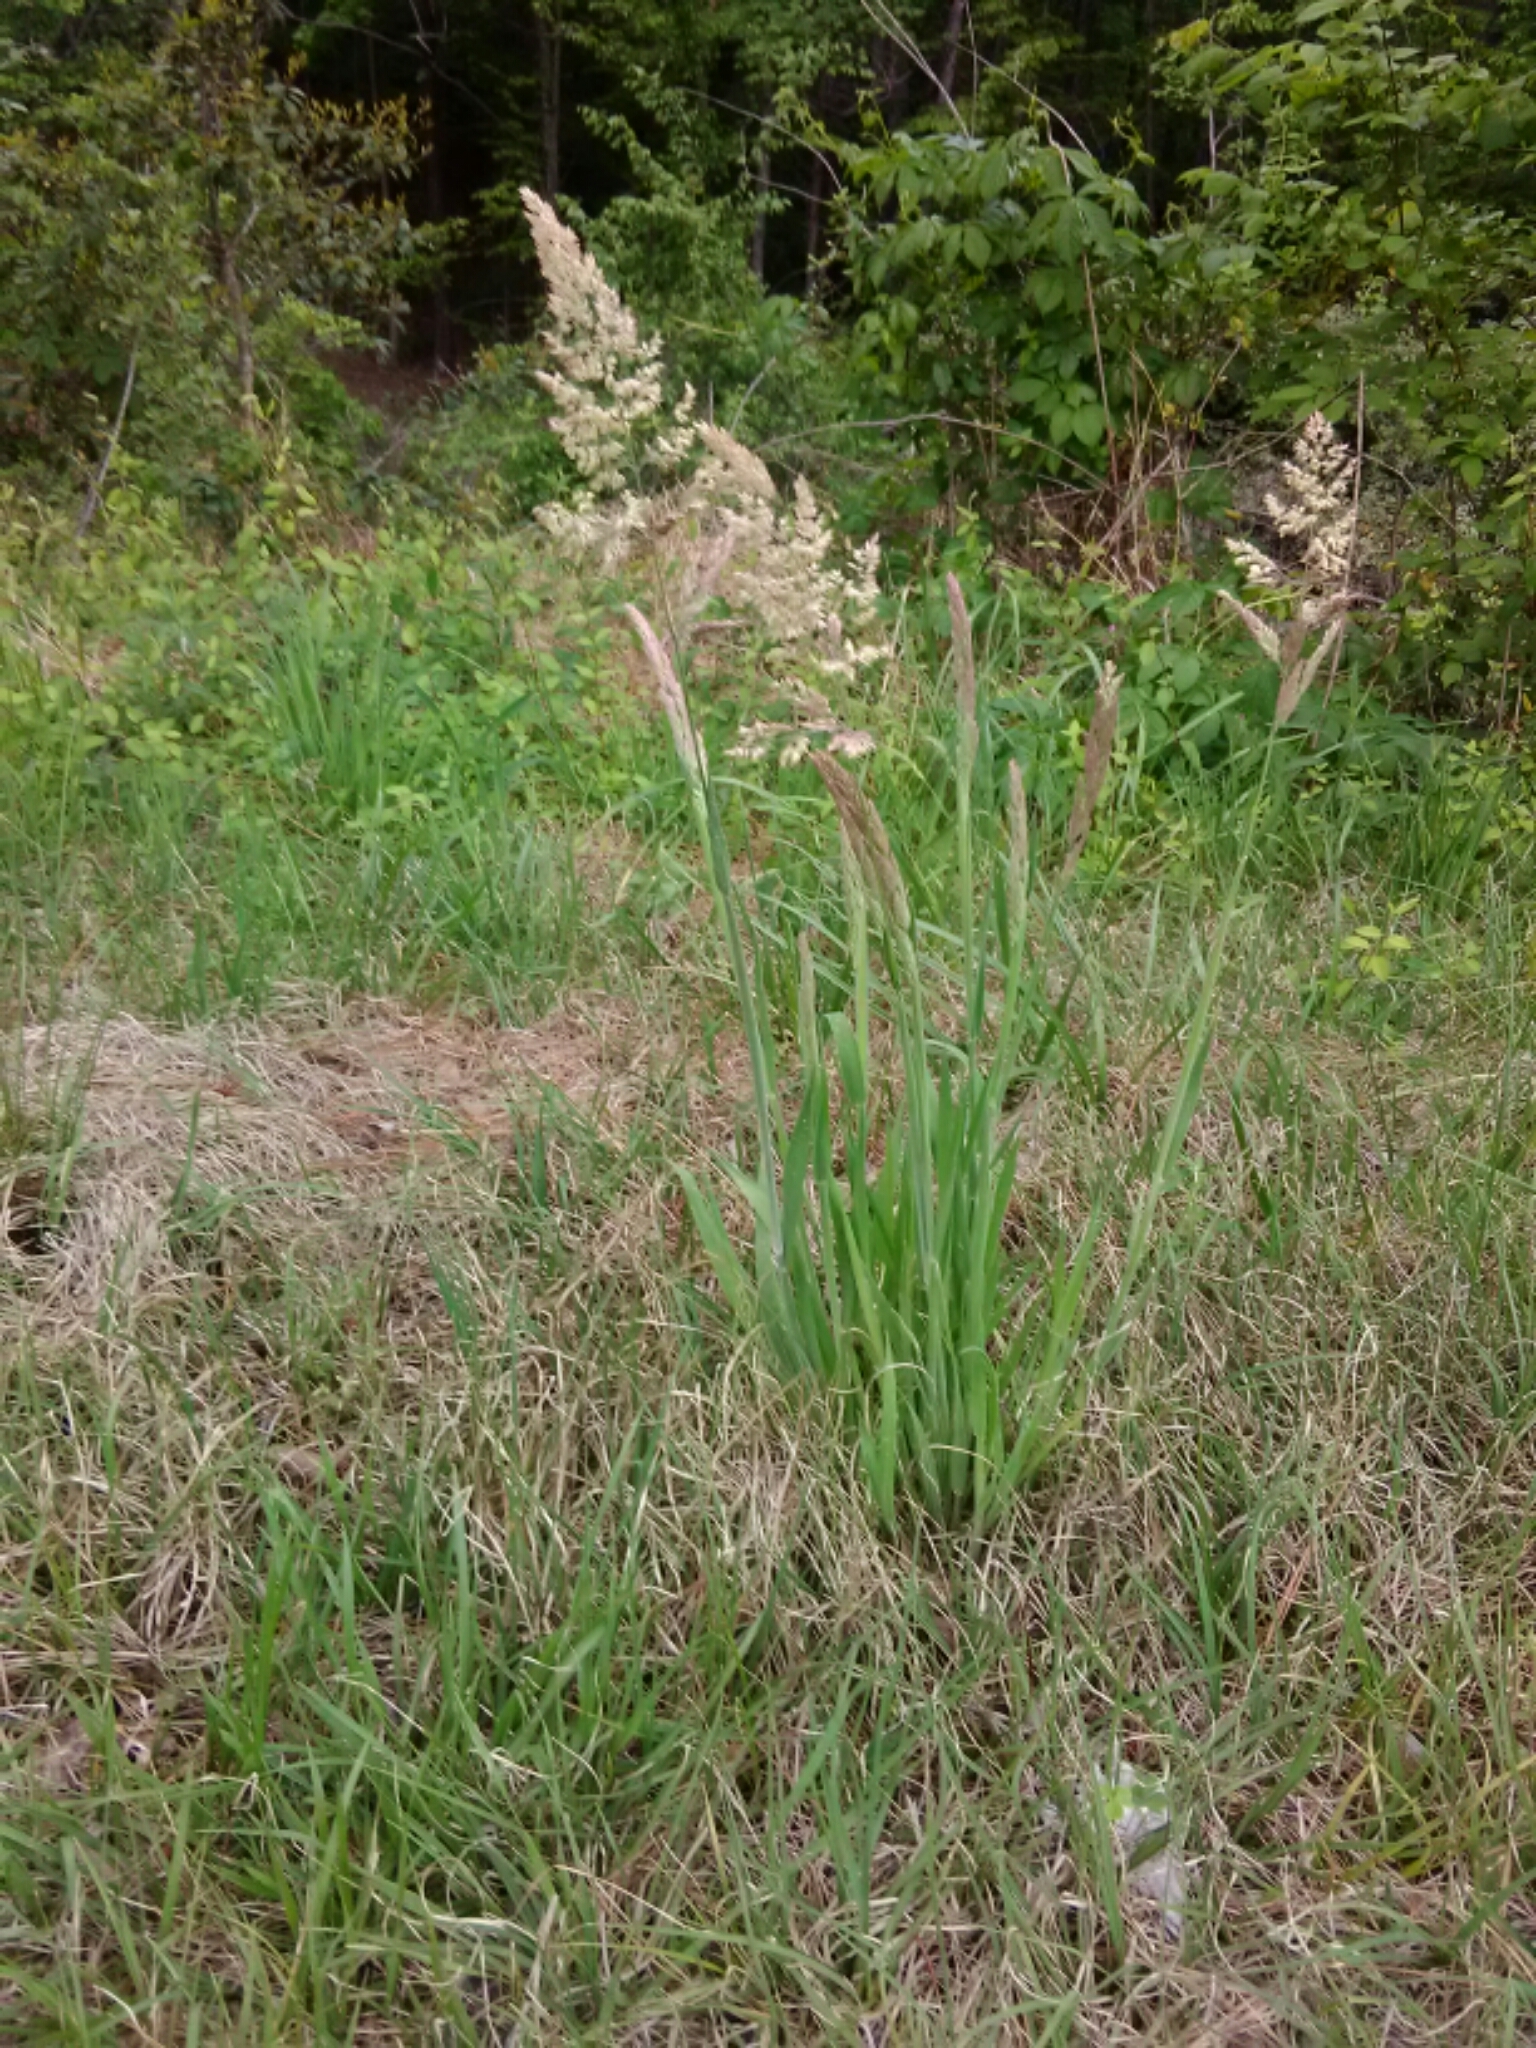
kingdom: Plantae
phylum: Tracheophyta
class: Liliopsida
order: Poales
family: Poaceae
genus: Holcus
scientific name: Holcus lanatus
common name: Yorkshire-fog
